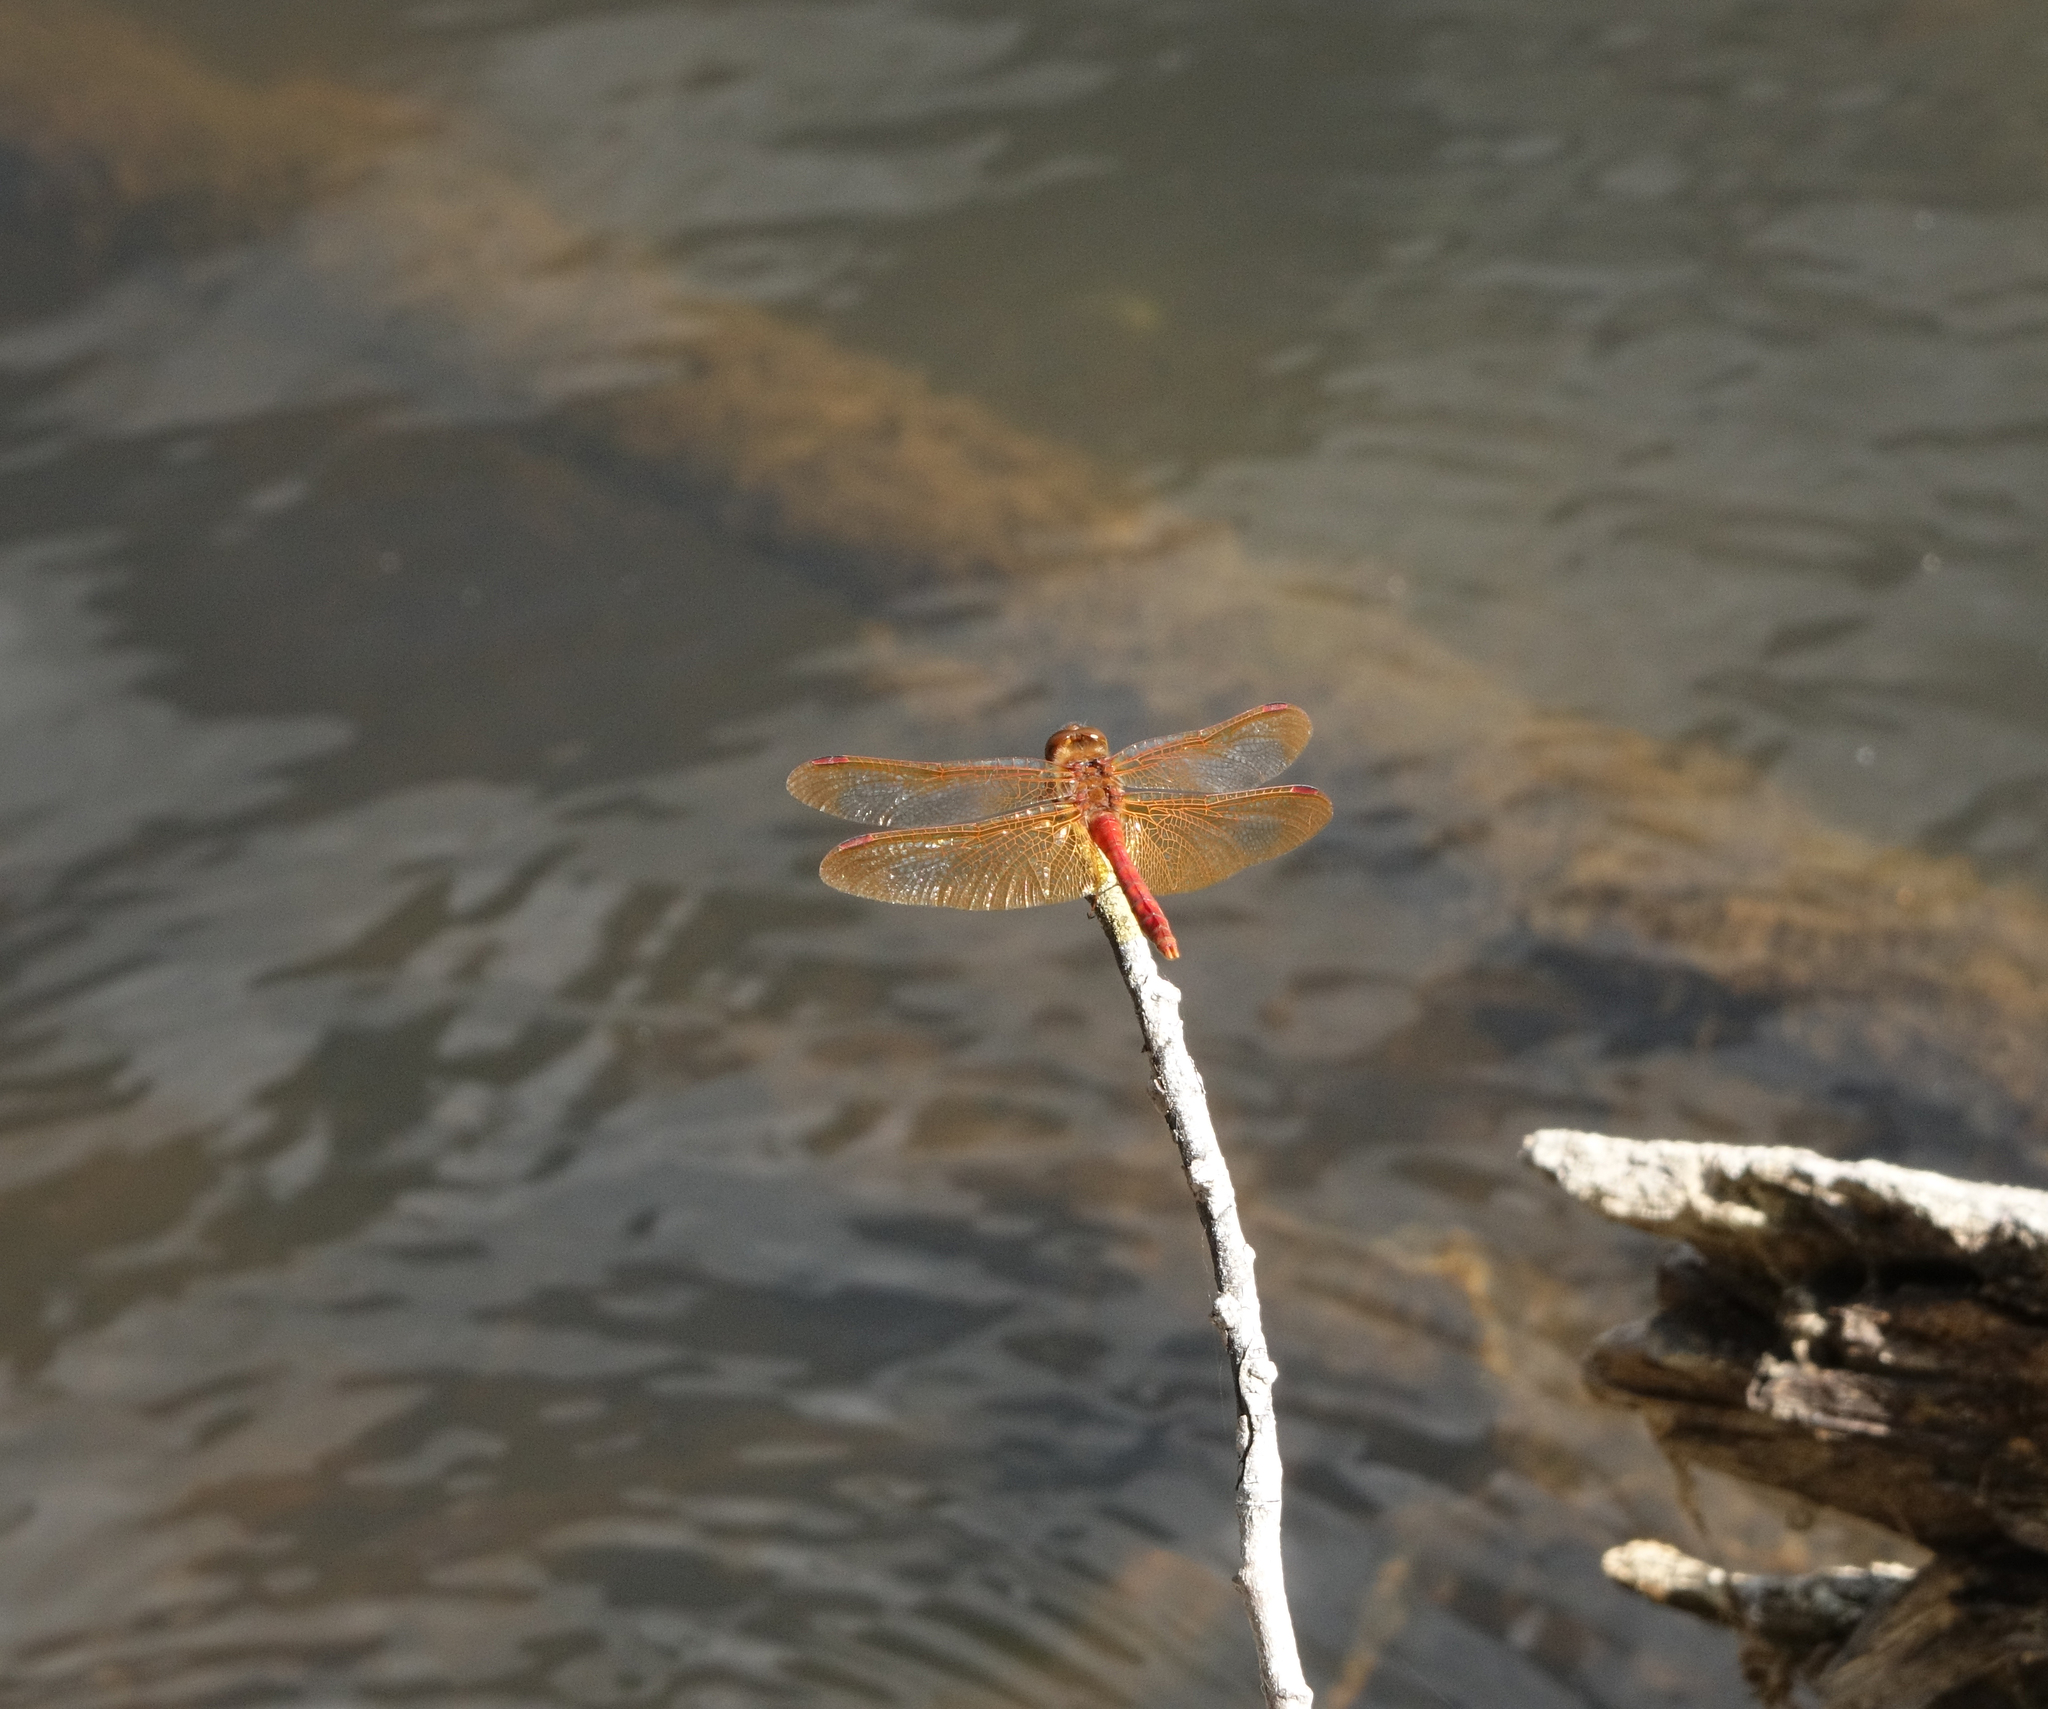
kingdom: Animalia
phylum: Arthropoda
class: Insecta
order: Odonata
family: Libellulidae
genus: Sympetrum
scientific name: Sympetrum croceolum
